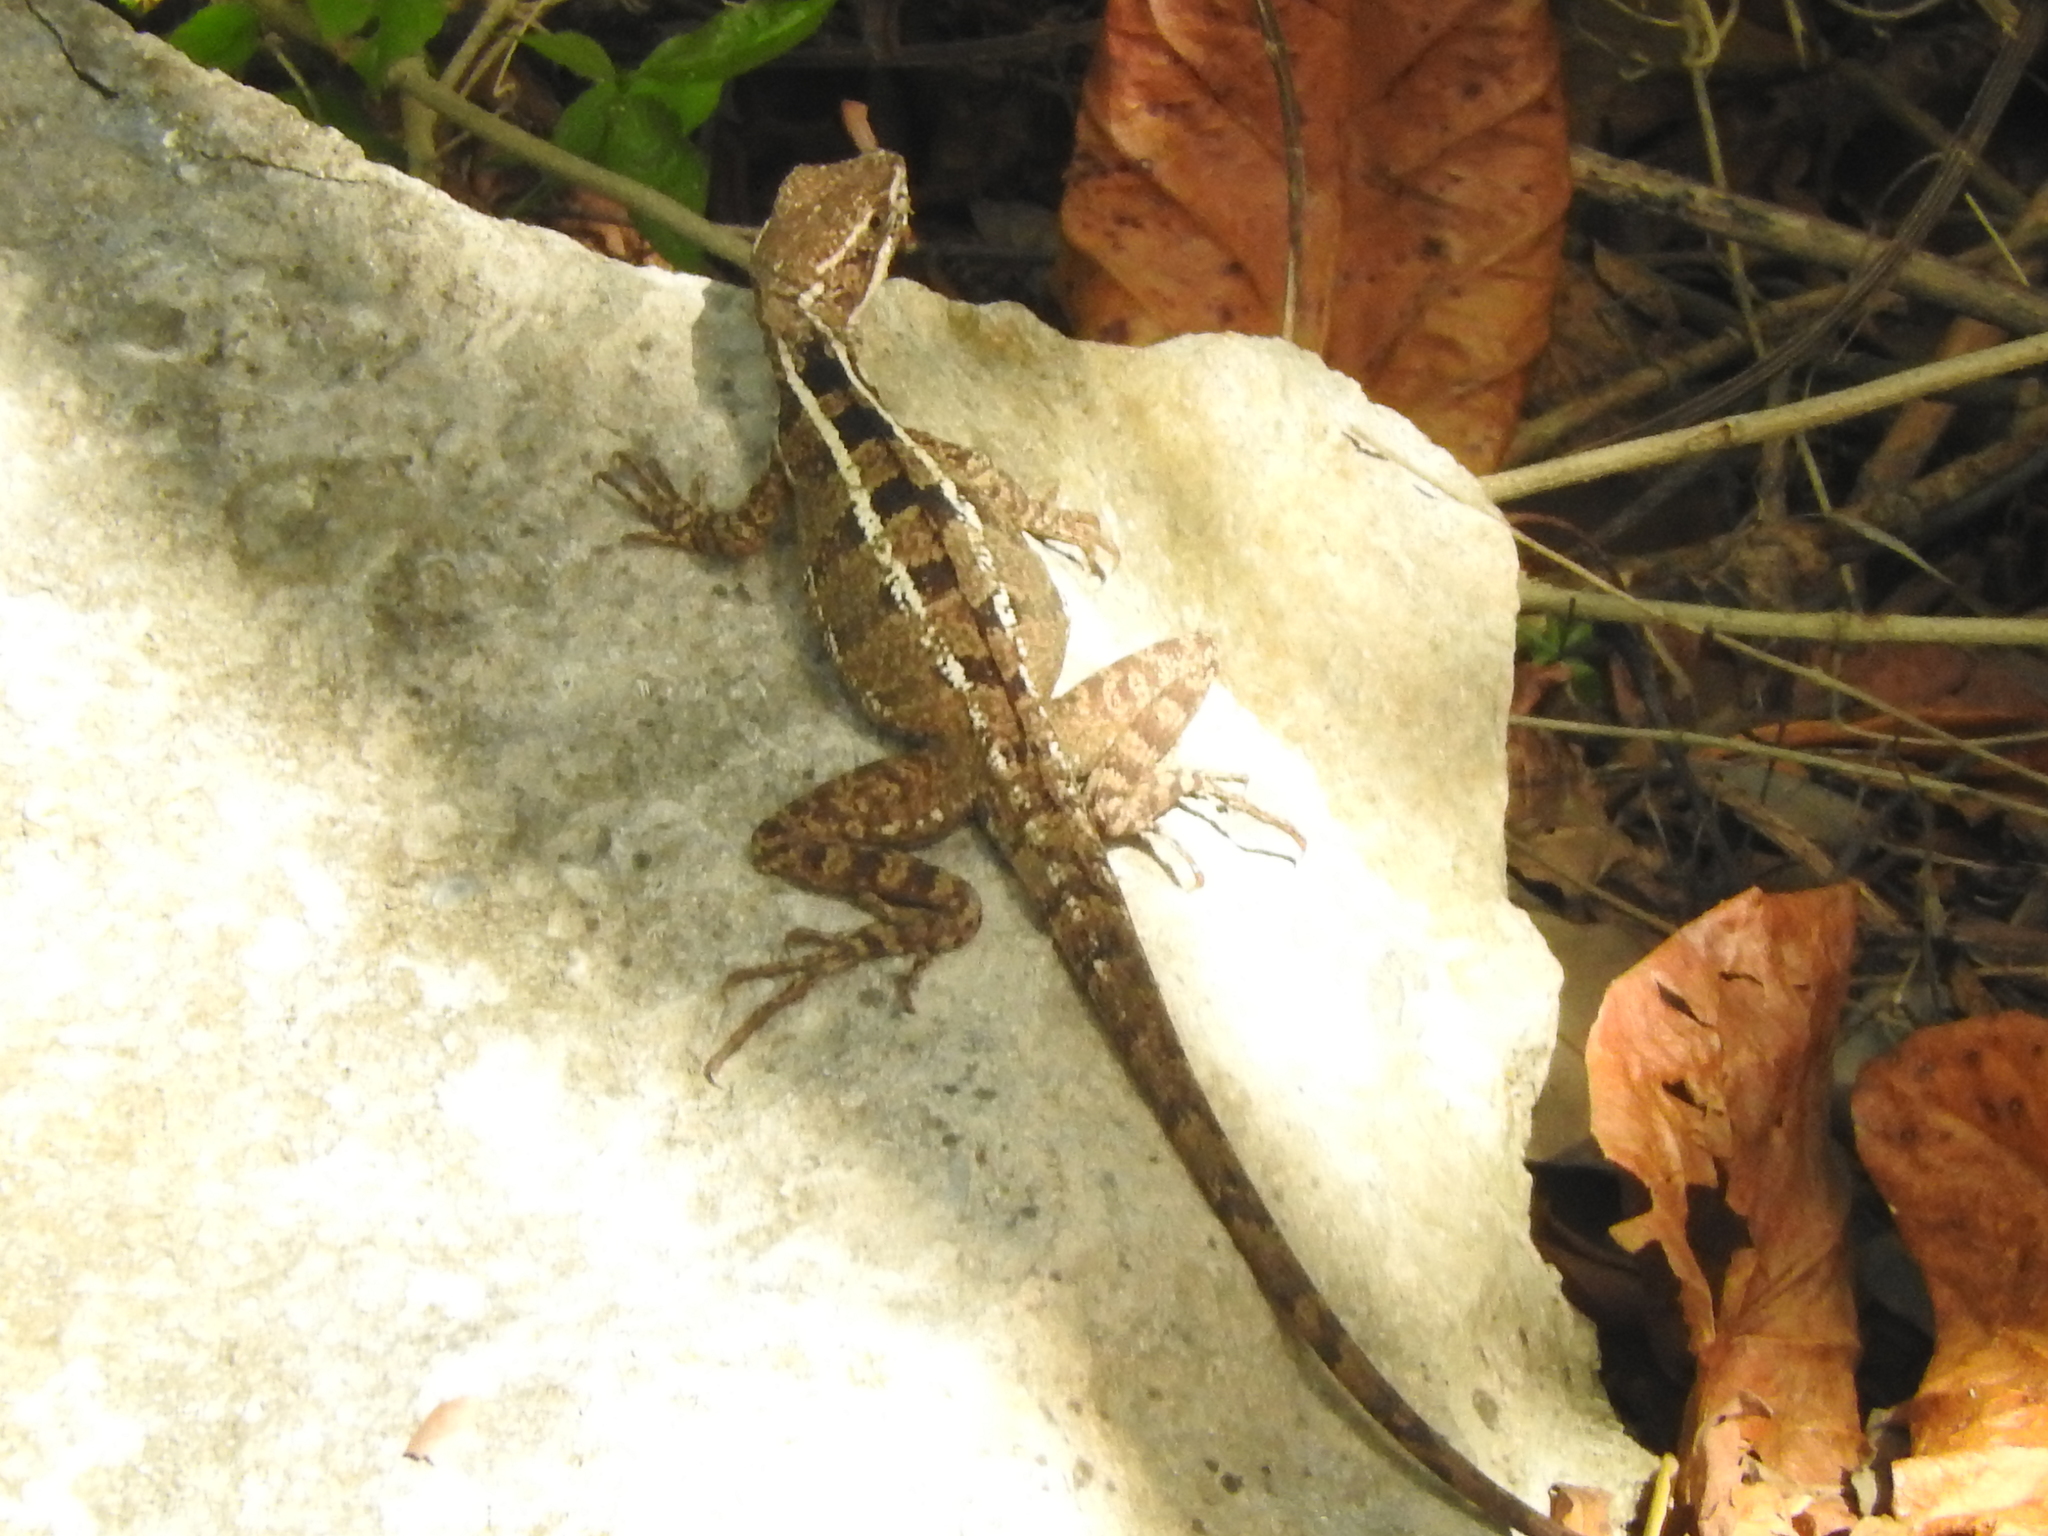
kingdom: Animalia
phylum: Chordata
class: Squamata
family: Corytophanidae
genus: Basiliscus
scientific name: Basiliscus vittatus
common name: Brown basilisk
